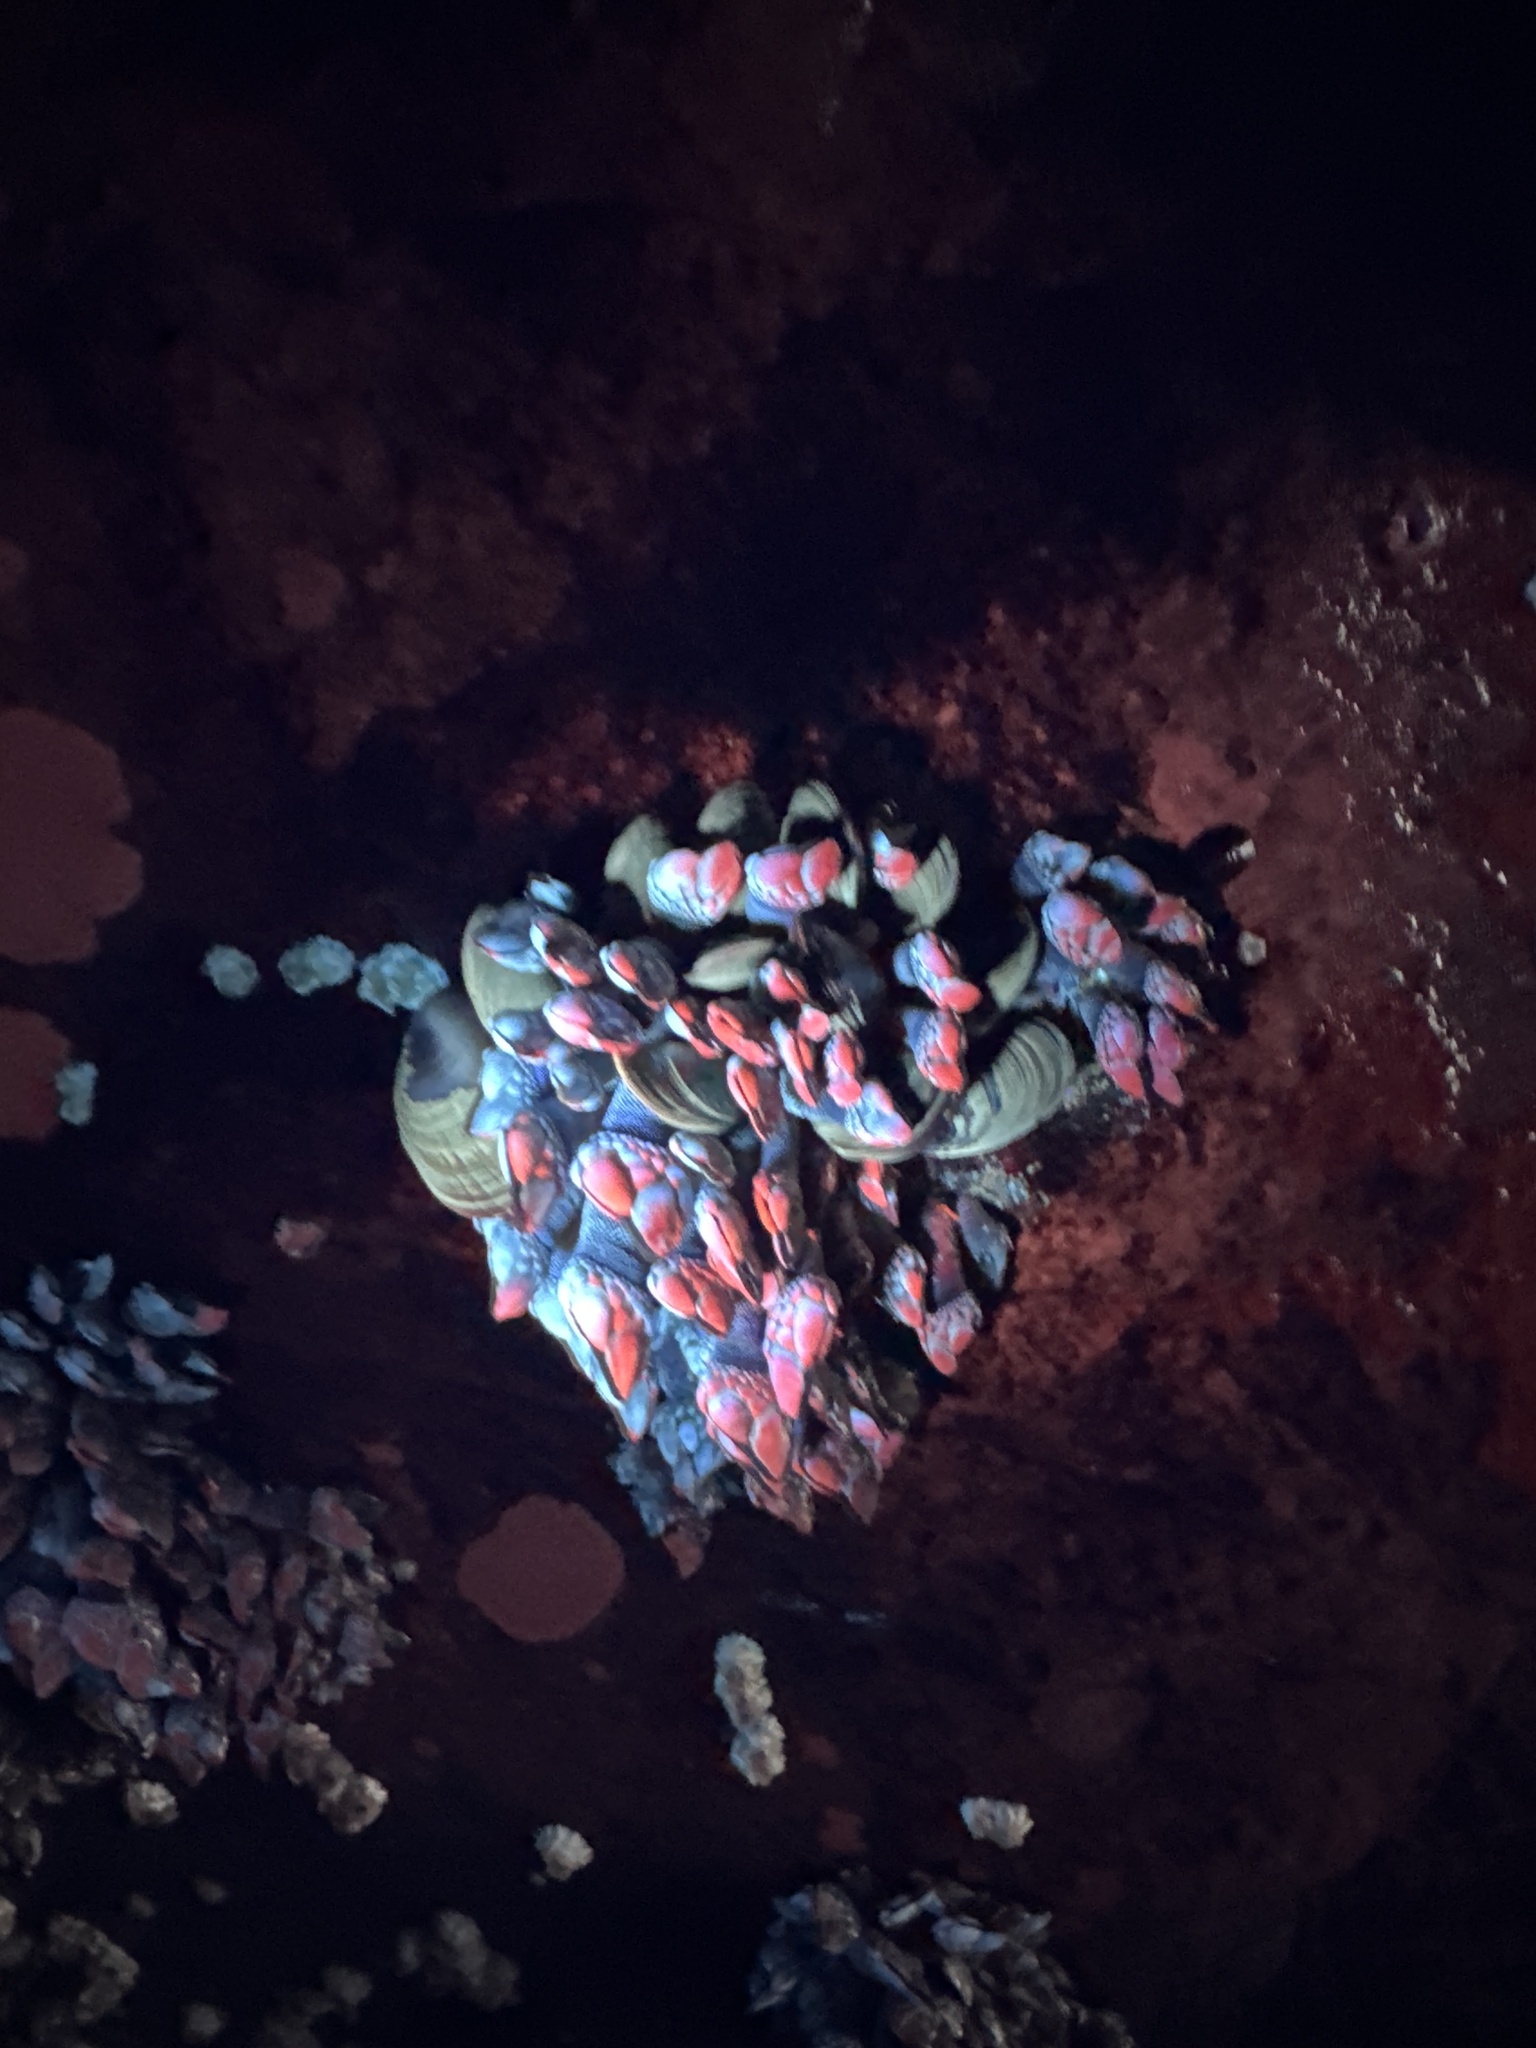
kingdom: Animalia
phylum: Arthropoda
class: Maxillopoda
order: Pedunculata
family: Pollicipedidae
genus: Pollicipes
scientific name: Pollicipes polymerus
